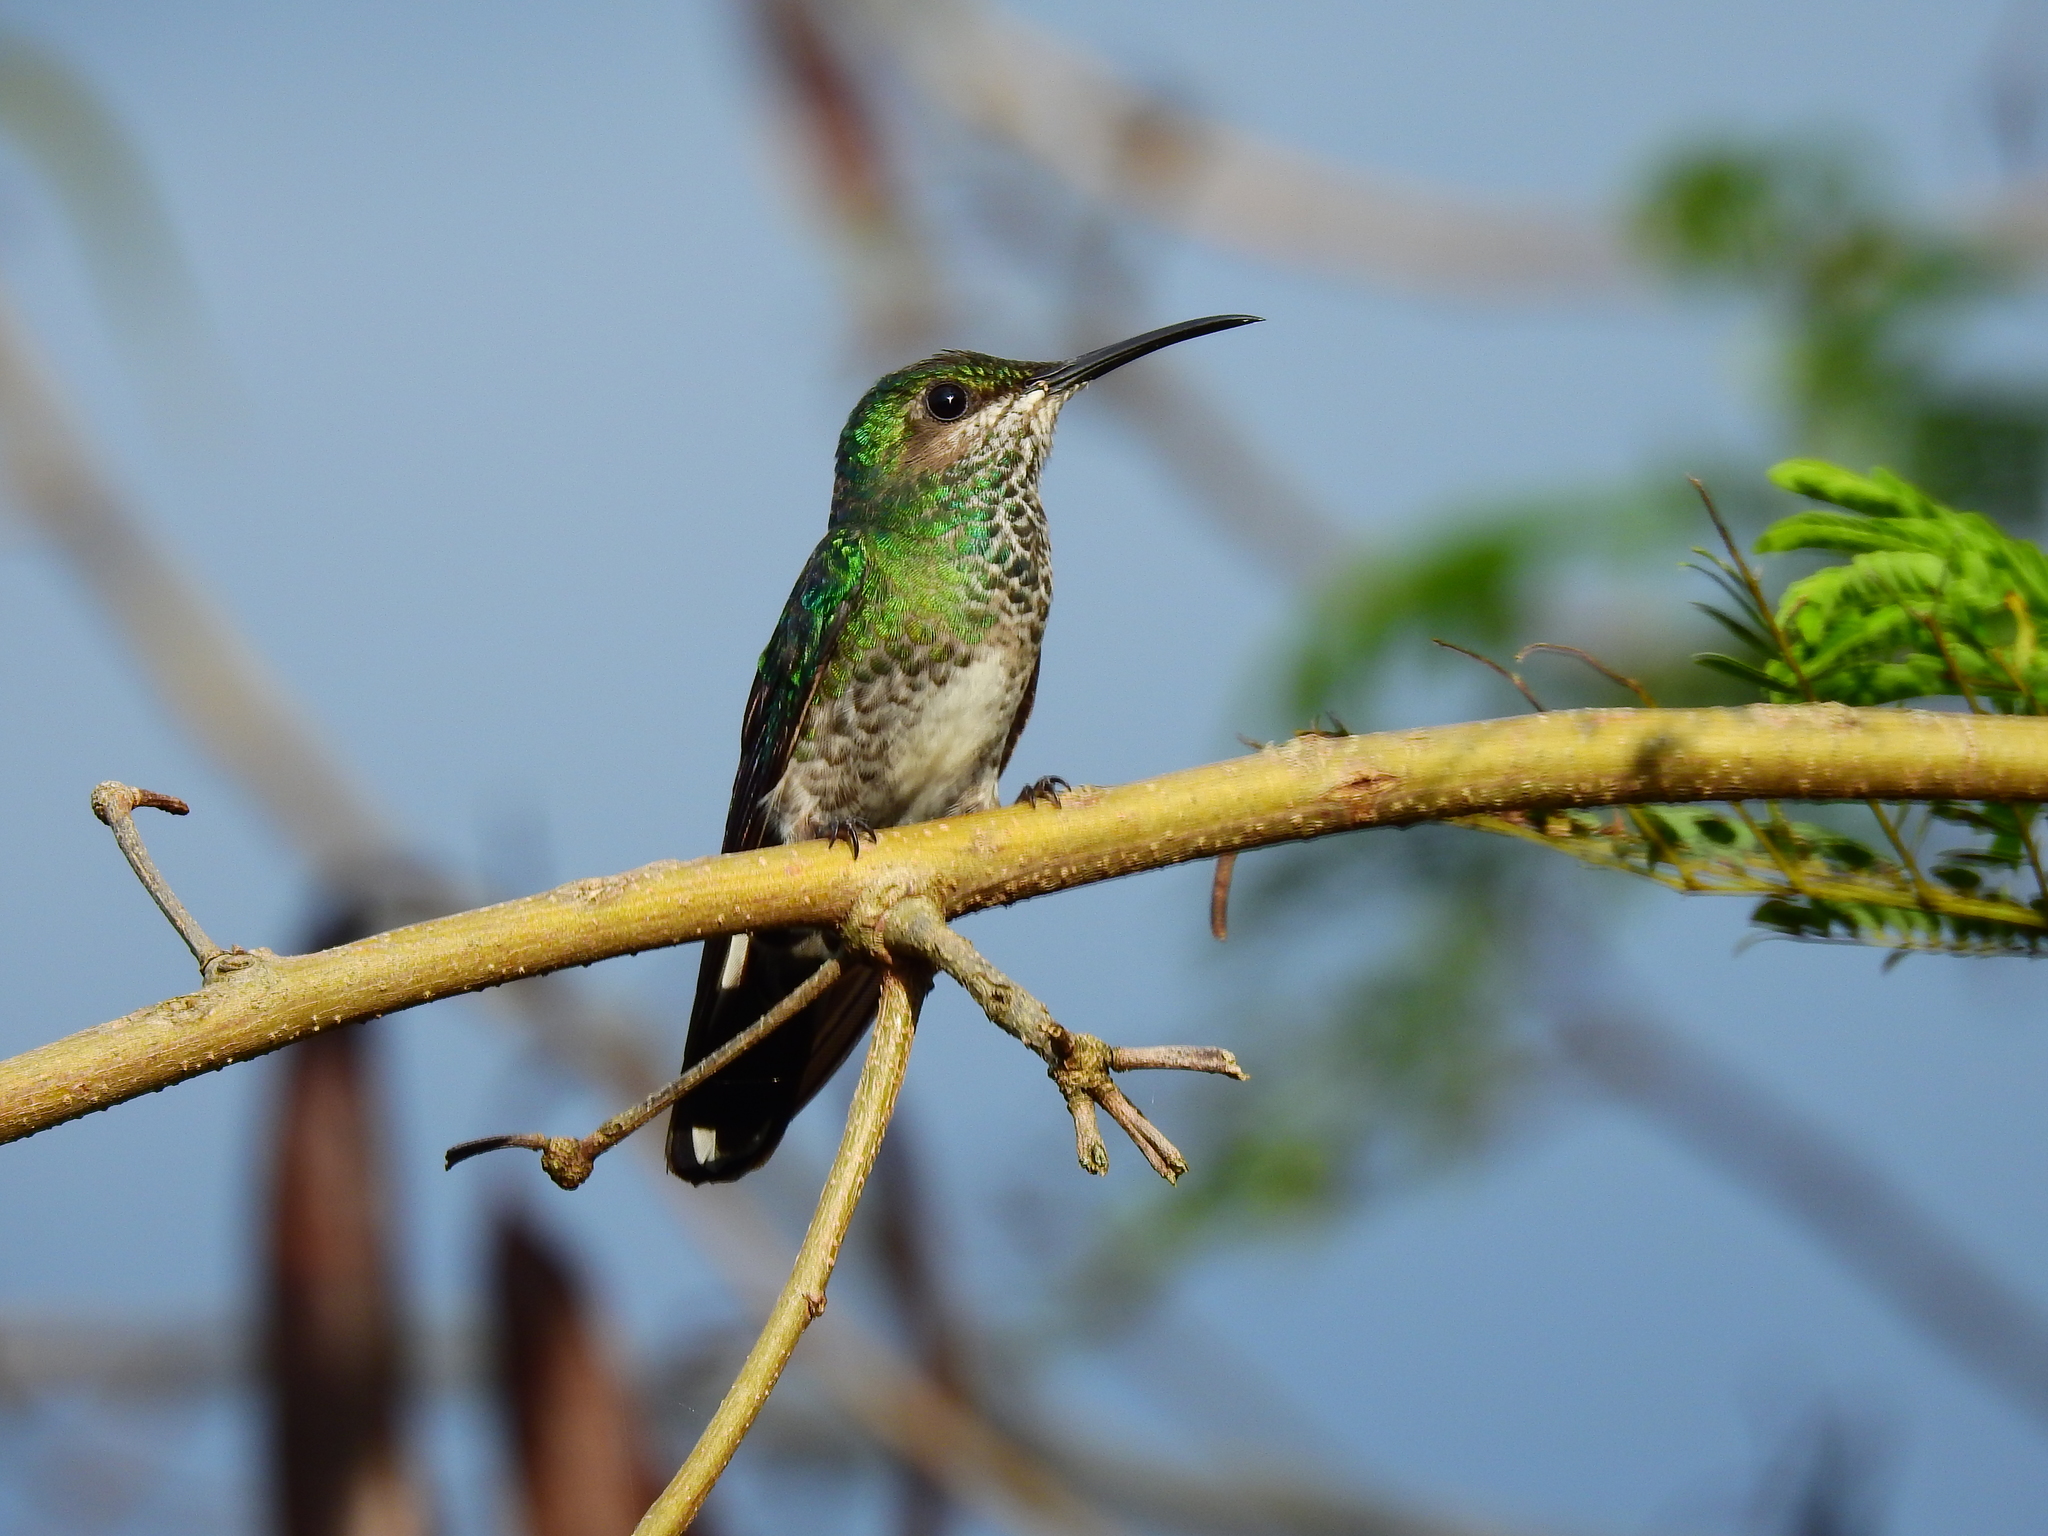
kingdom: Animalia
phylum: Chordata
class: Aves
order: Apodiformes
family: Trochilidae
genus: Florisuga
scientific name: Florisuga mellivora
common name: White-necked jacobin
